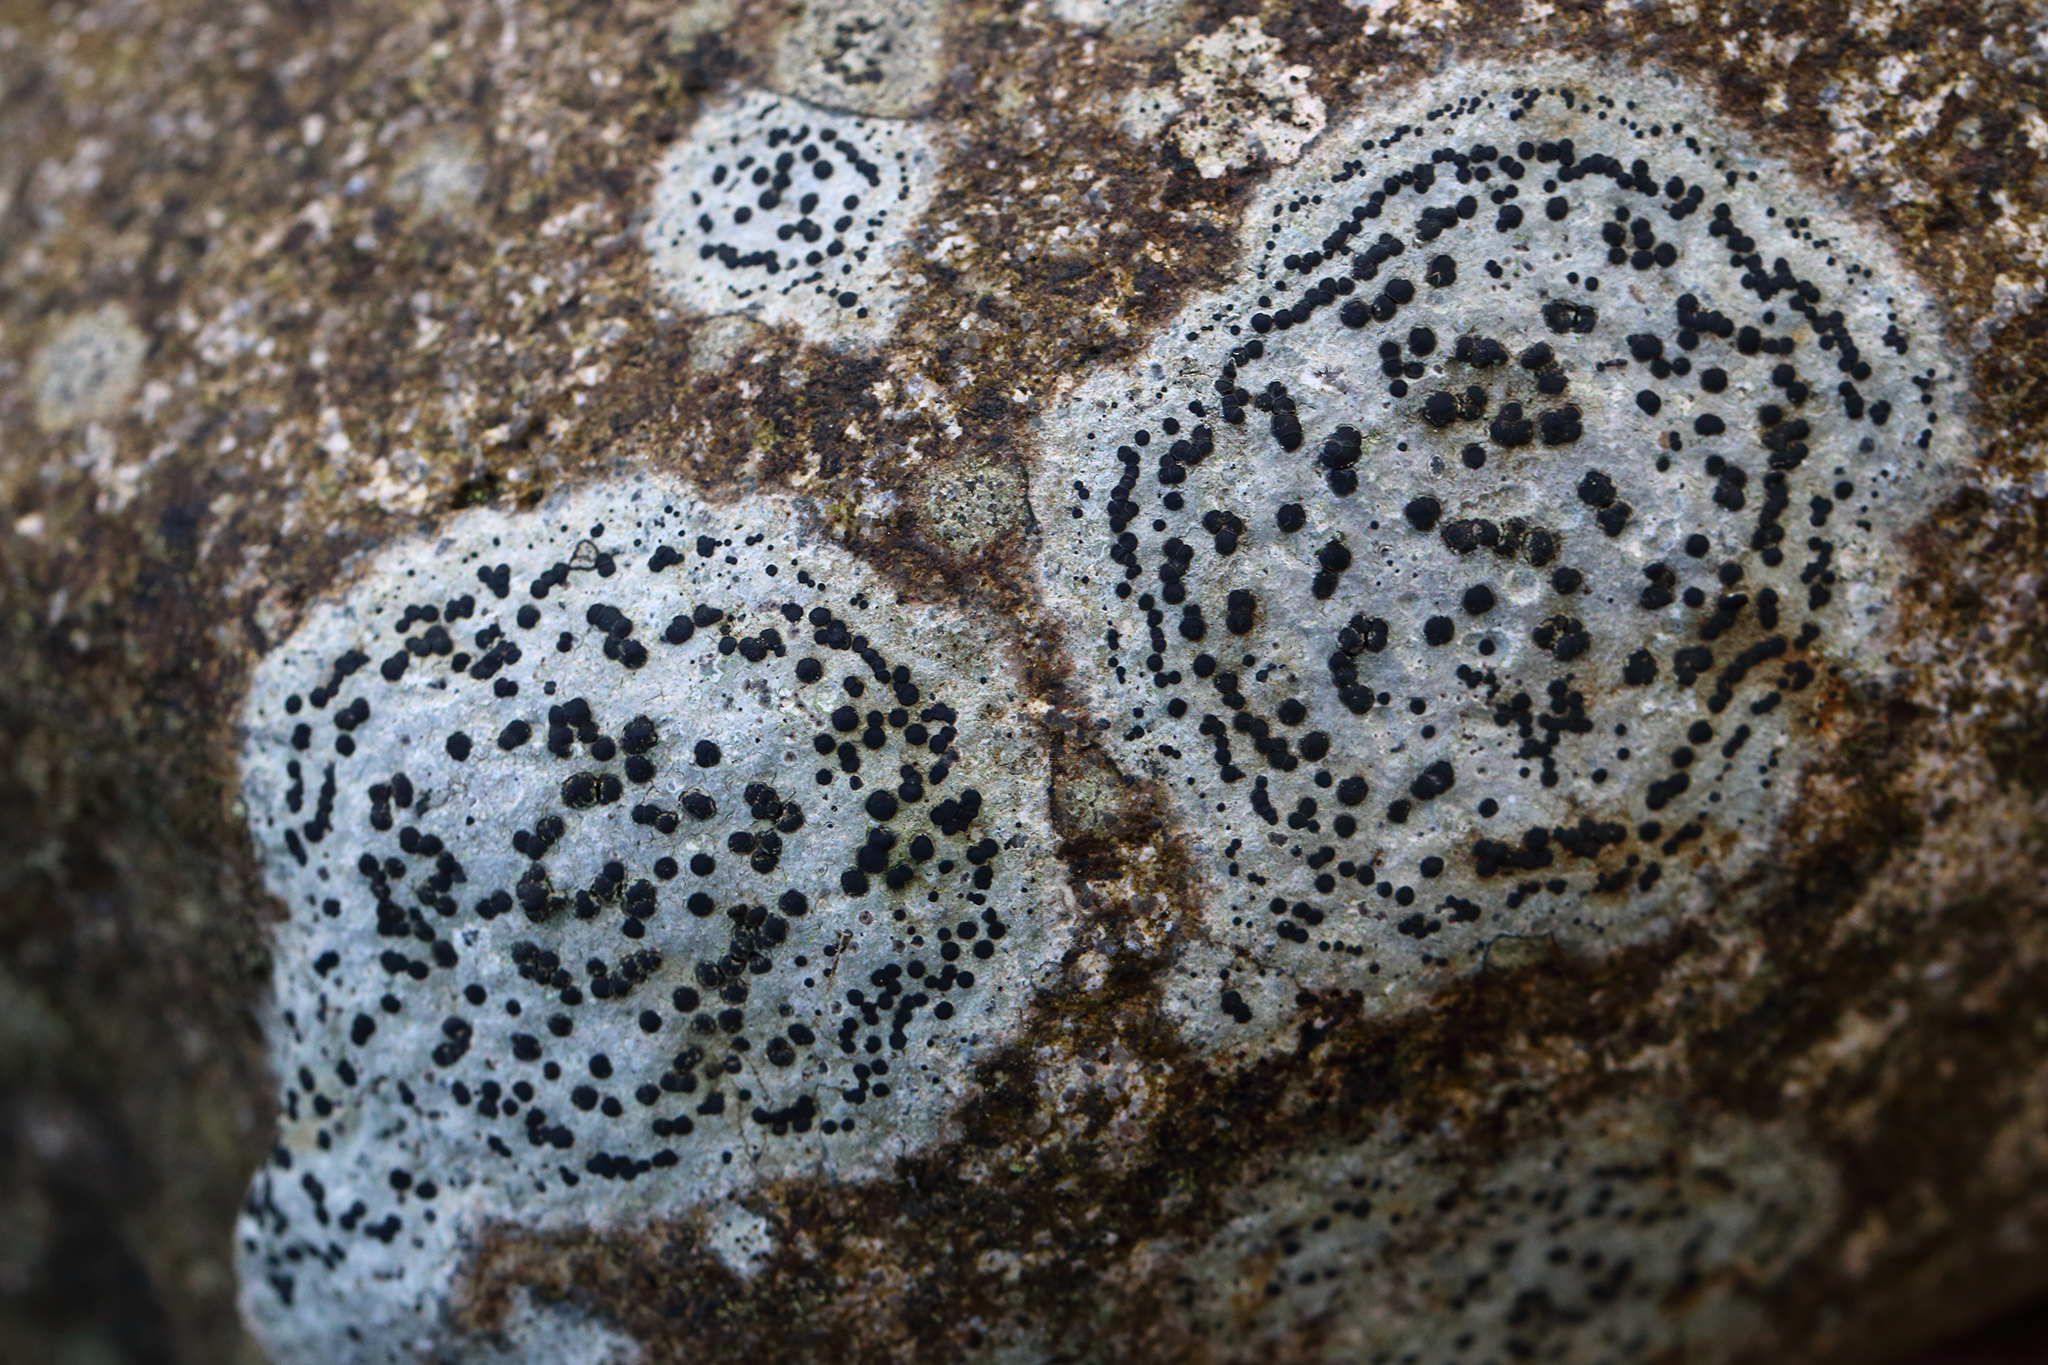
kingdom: Fungi
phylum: Ascomycota
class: Lecanoromycetes
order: Lecideales
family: Lecideaceae
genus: Porpidia
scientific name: Porpidia crustulata
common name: Concentric boulder lichen
